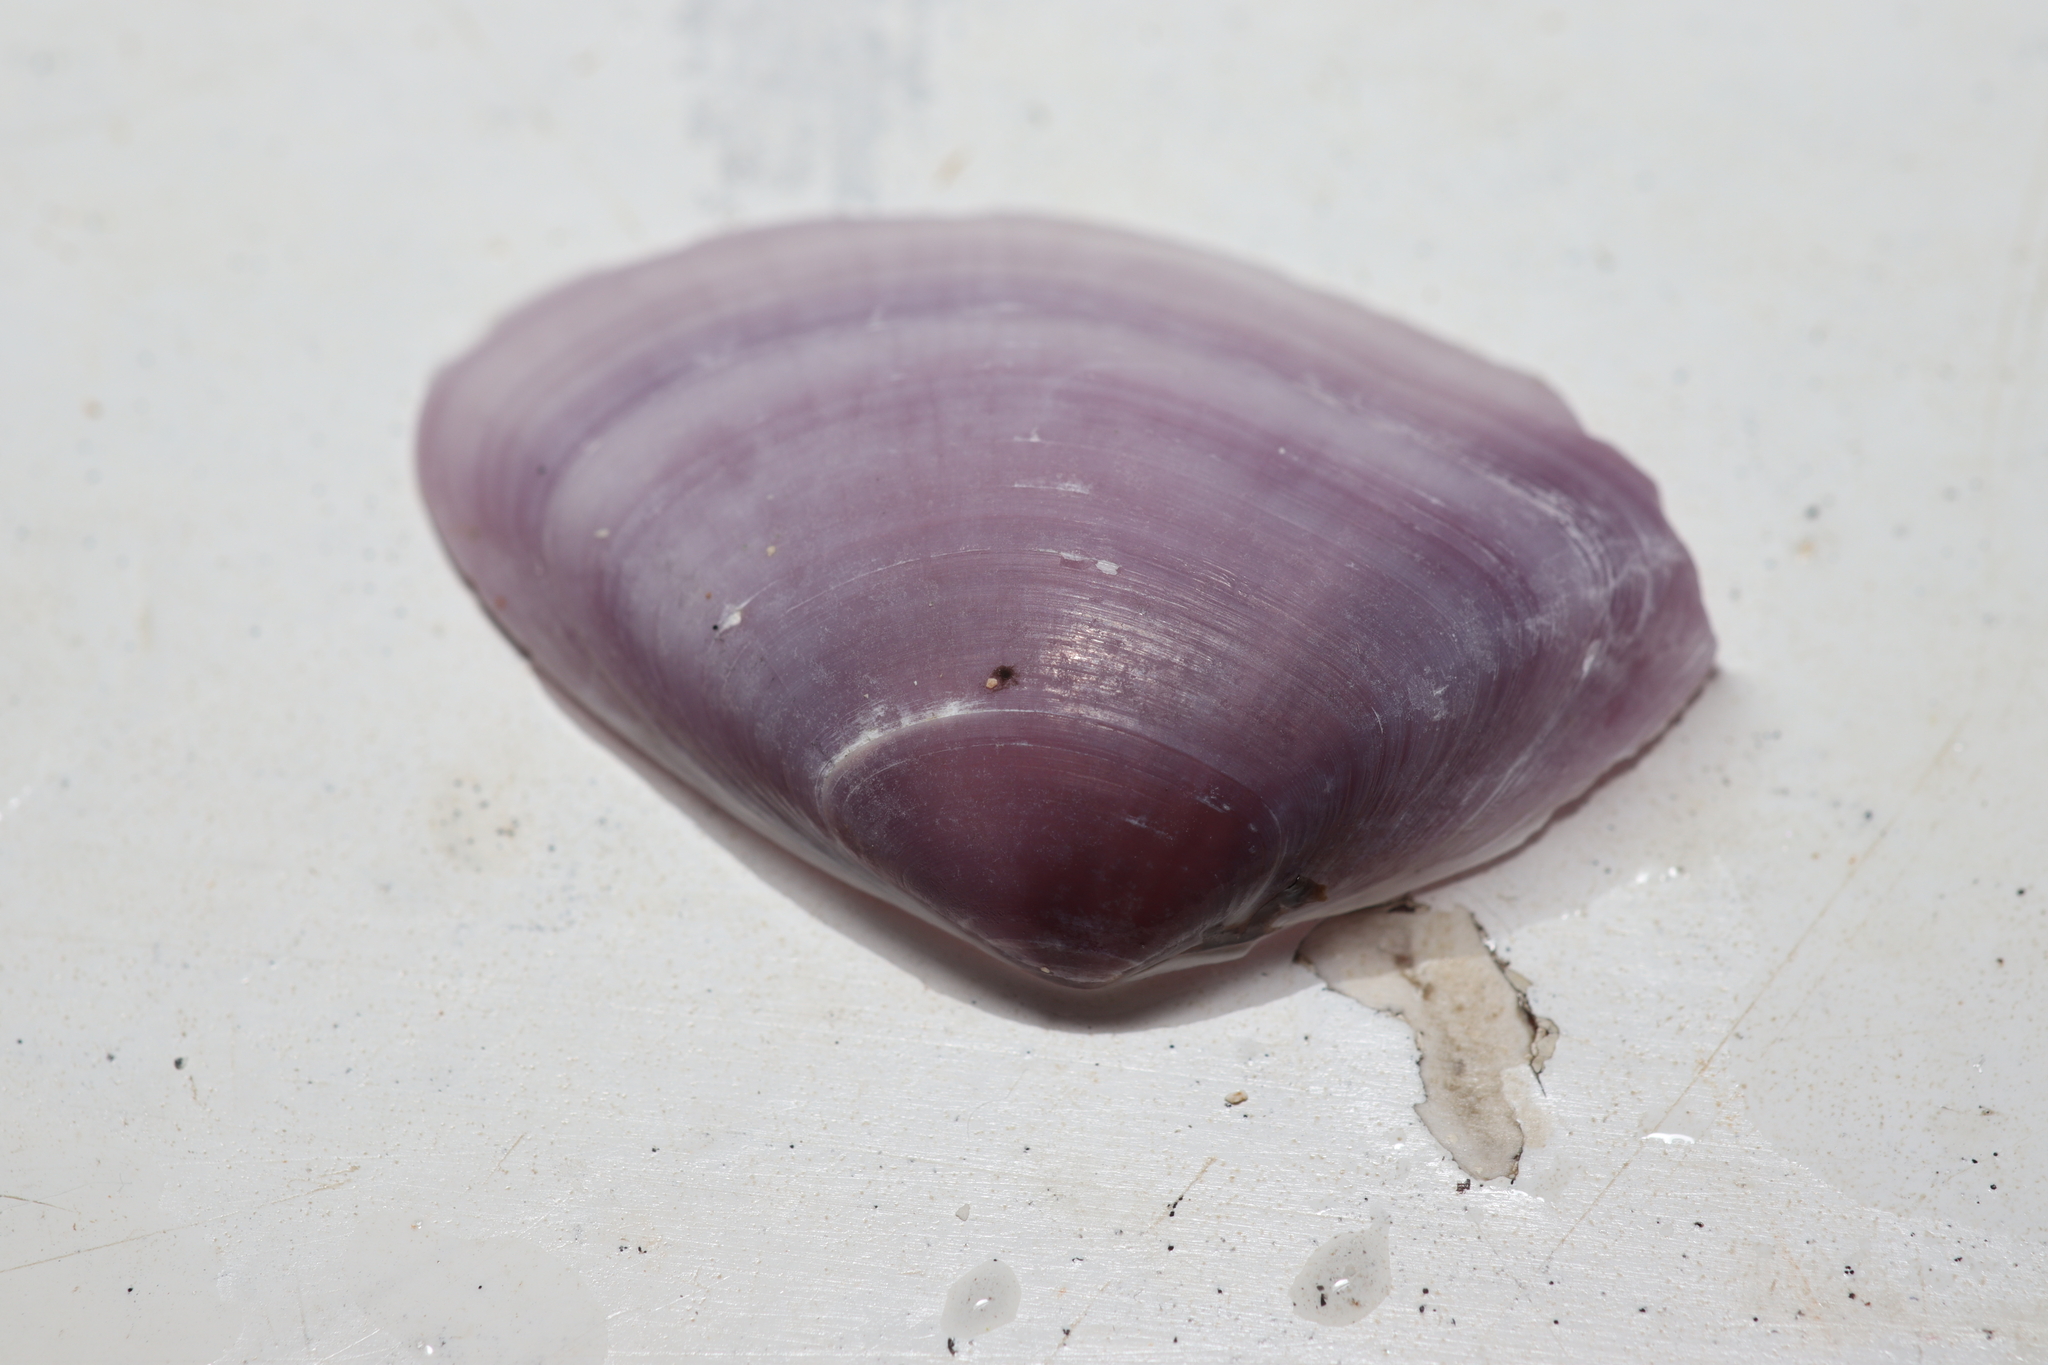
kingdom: Animalia
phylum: Mollusca
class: Bivalvia
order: Cardiida
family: Donacidae
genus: Iphigenia
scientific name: Iphigenia brasiliensis
